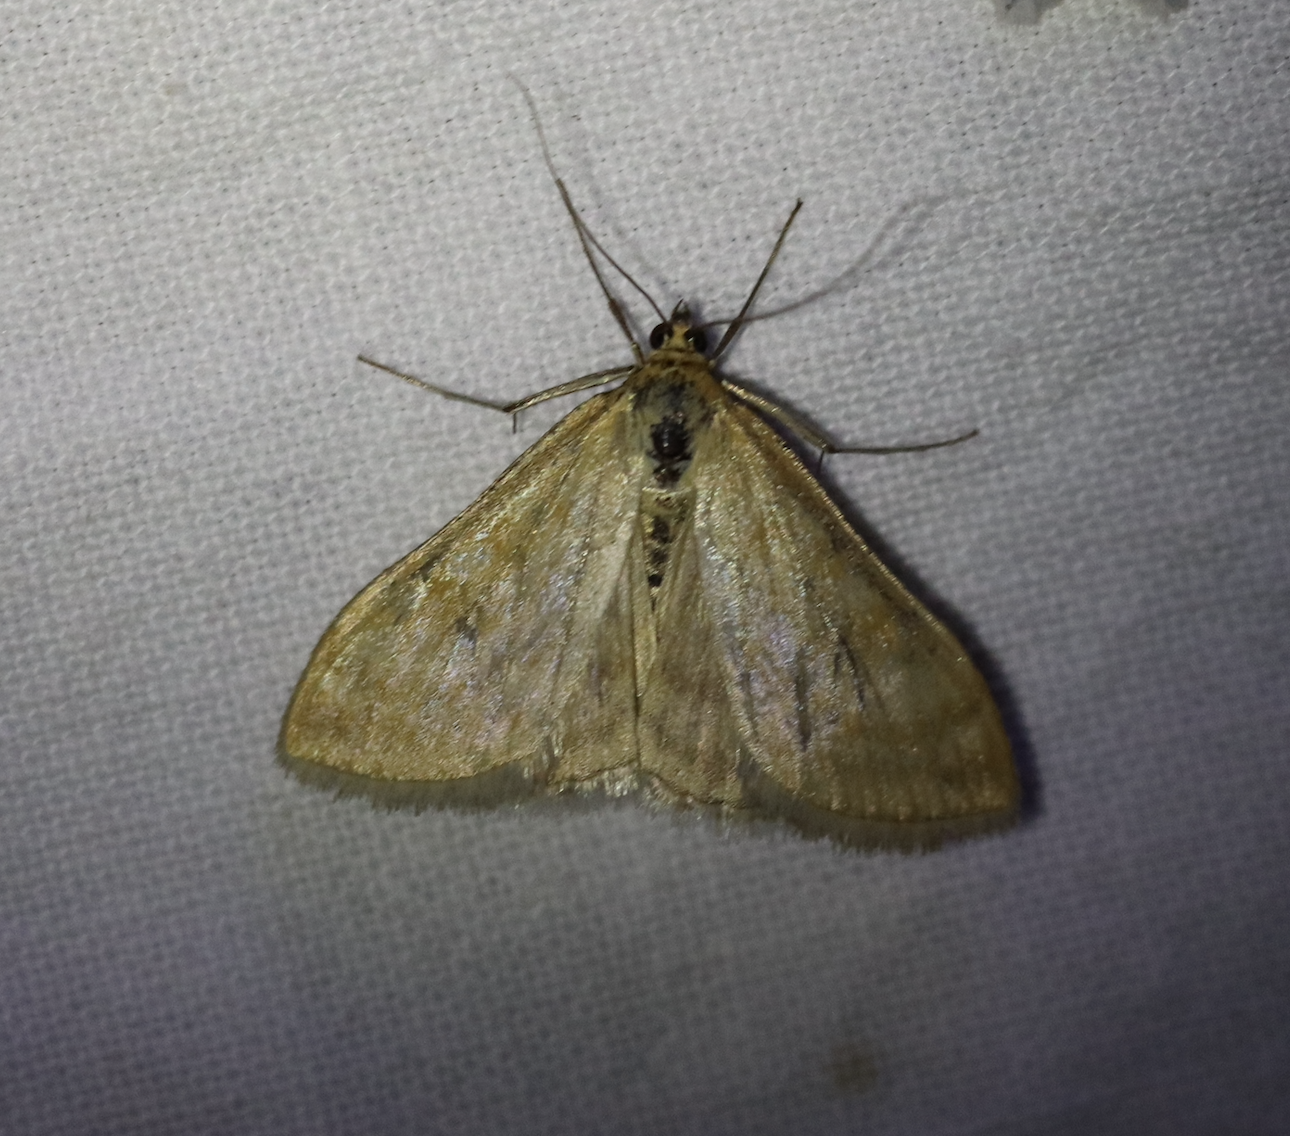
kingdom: Animalia
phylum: Arthropoda
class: Insecta
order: Lepidoptera
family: Crambidae
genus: Sitochroa
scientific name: Sitochroa verticalis
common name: Lesser pearl
